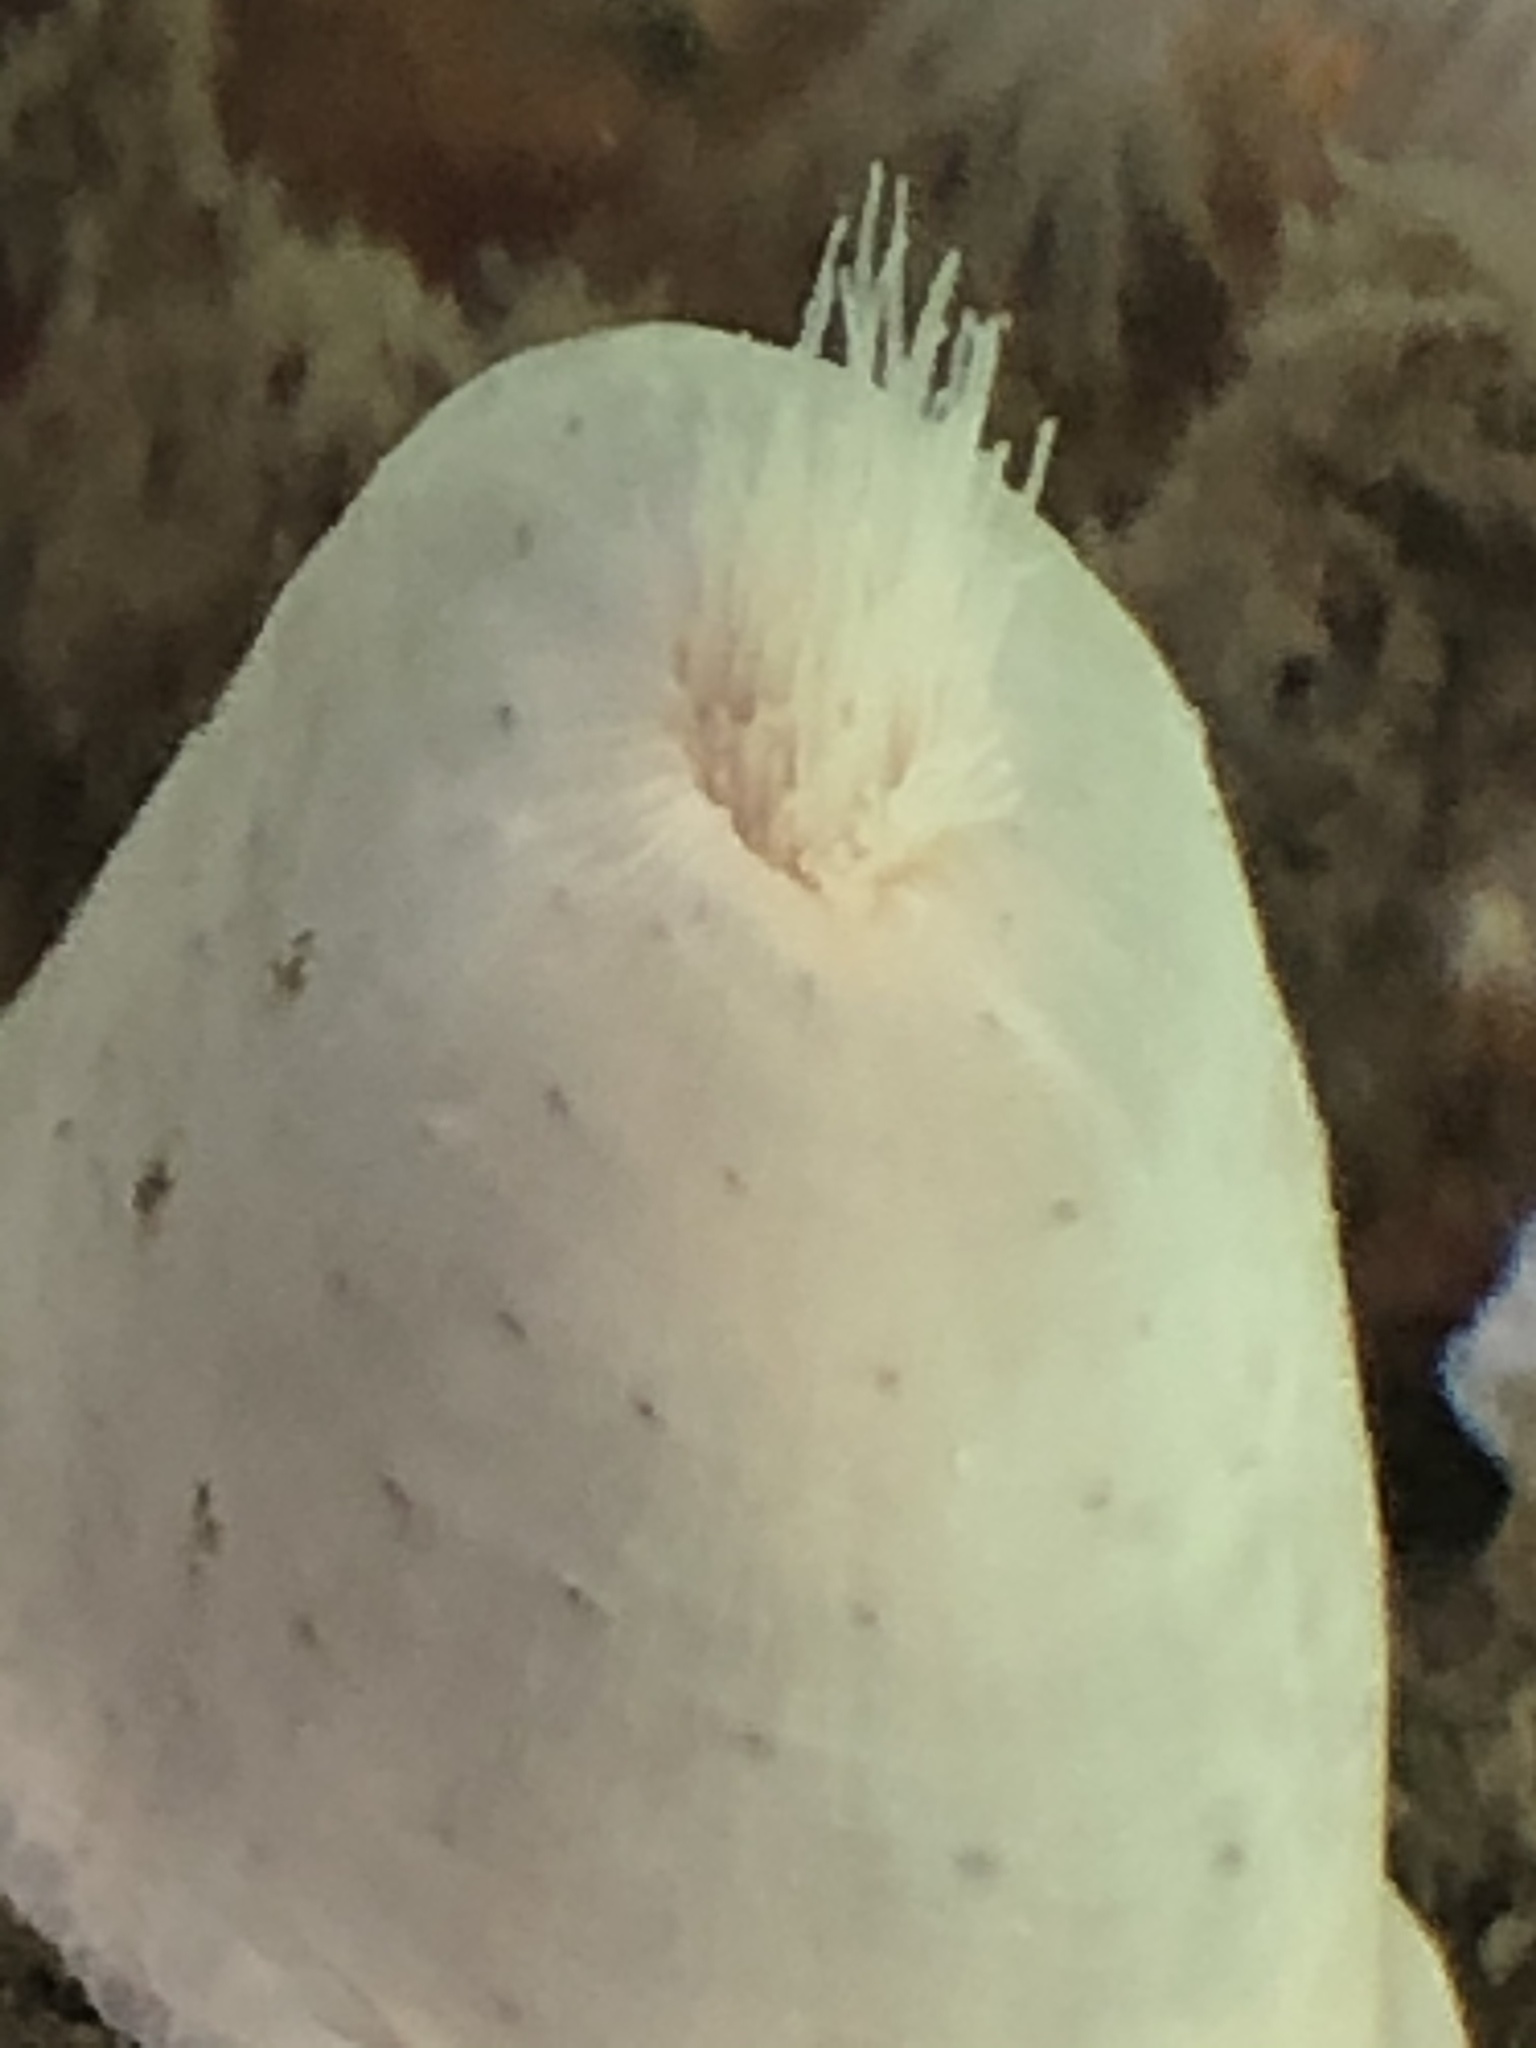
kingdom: Animalia
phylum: Cnidaria
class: Anthozoa
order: Actiniaria
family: Metridiidae
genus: Metridium
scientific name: Metridium senile
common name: Clonal plumose anemone
